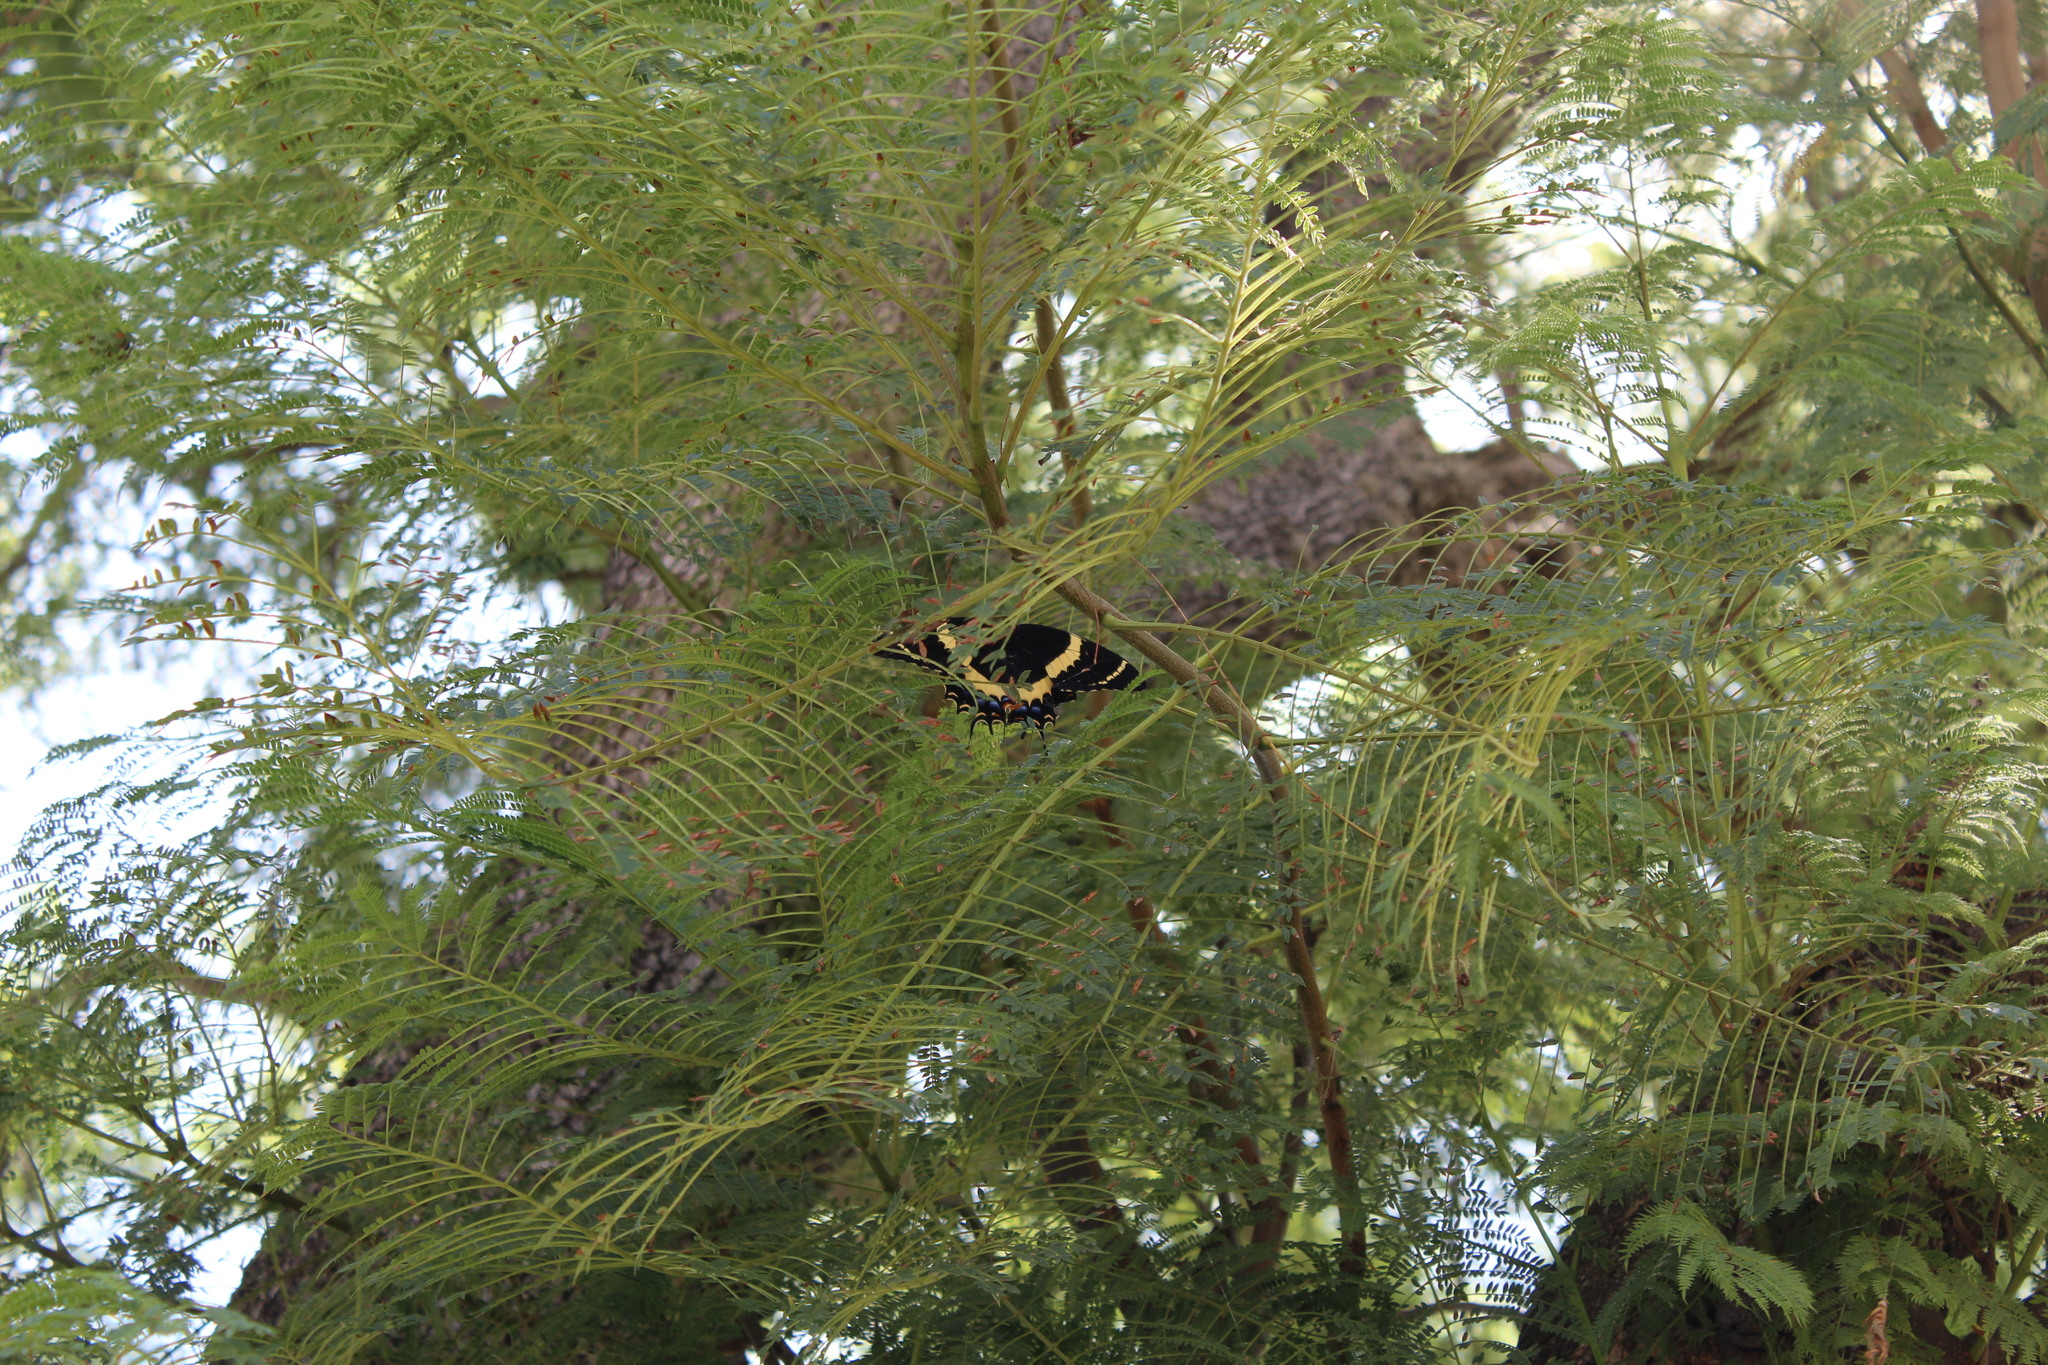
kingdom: Animalia
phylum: Arthropoda
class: Insecta
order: Lepidoptera
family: Papilionidae
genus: Papilio
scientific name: Papilio garamas
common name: Magnificent swallowtail
